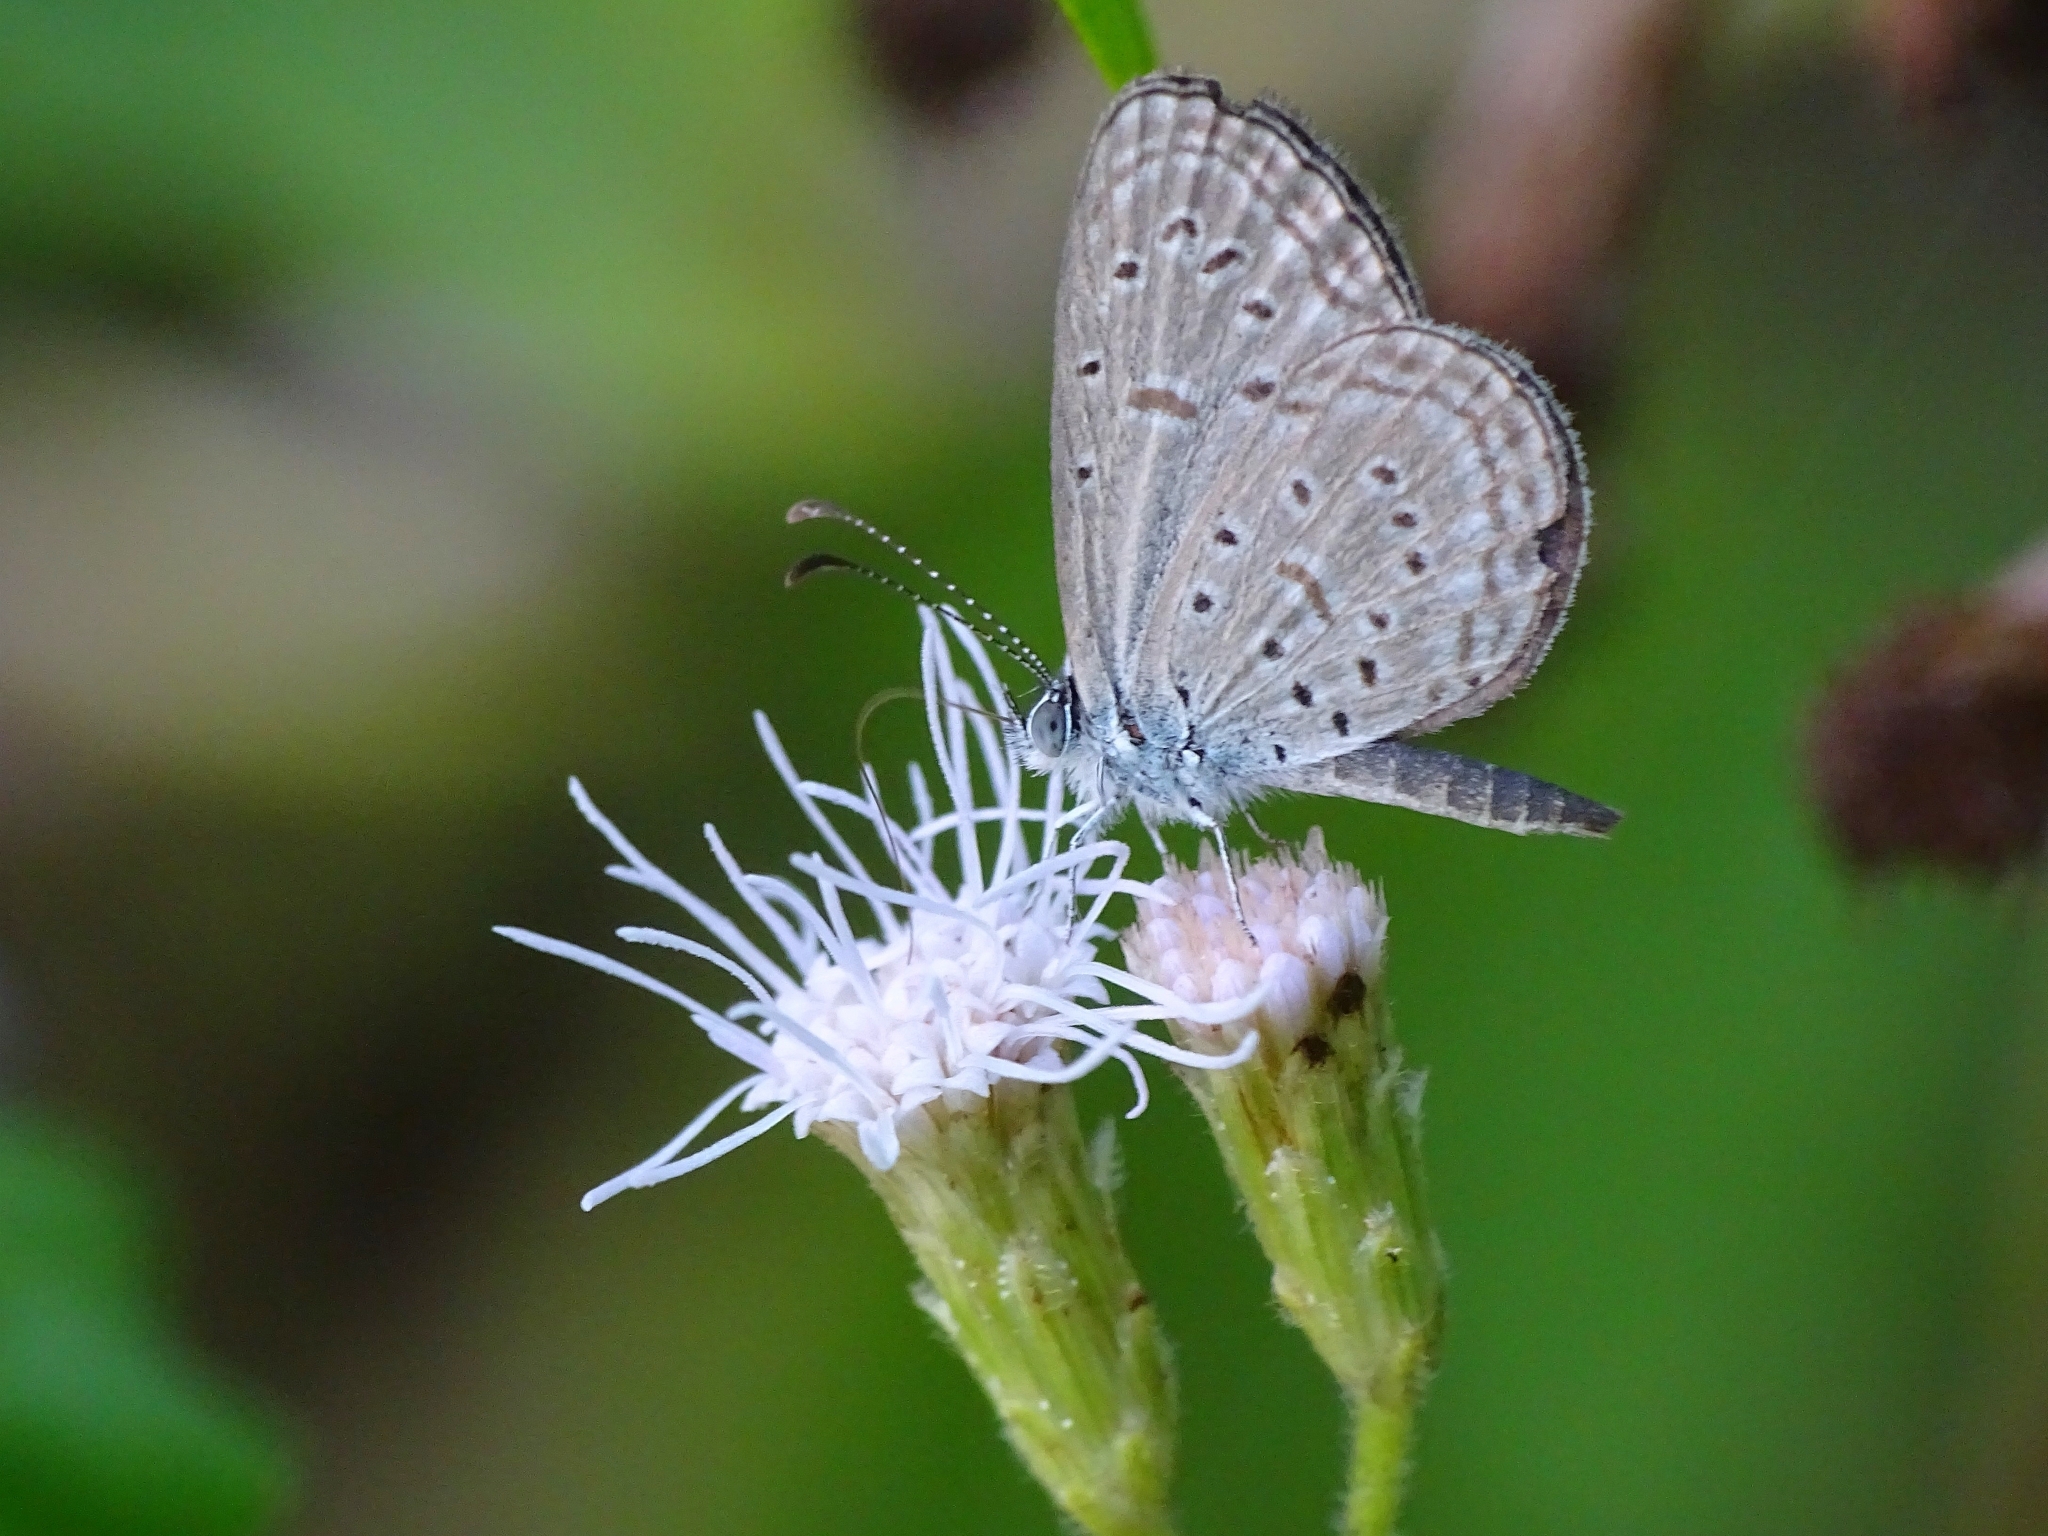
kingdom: Animalia
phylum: Arthropoda
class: Insecta
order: Lepidoptera
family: Lycaenidae
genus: Zizula
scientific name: Zizula hylax
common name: Gaika blue
